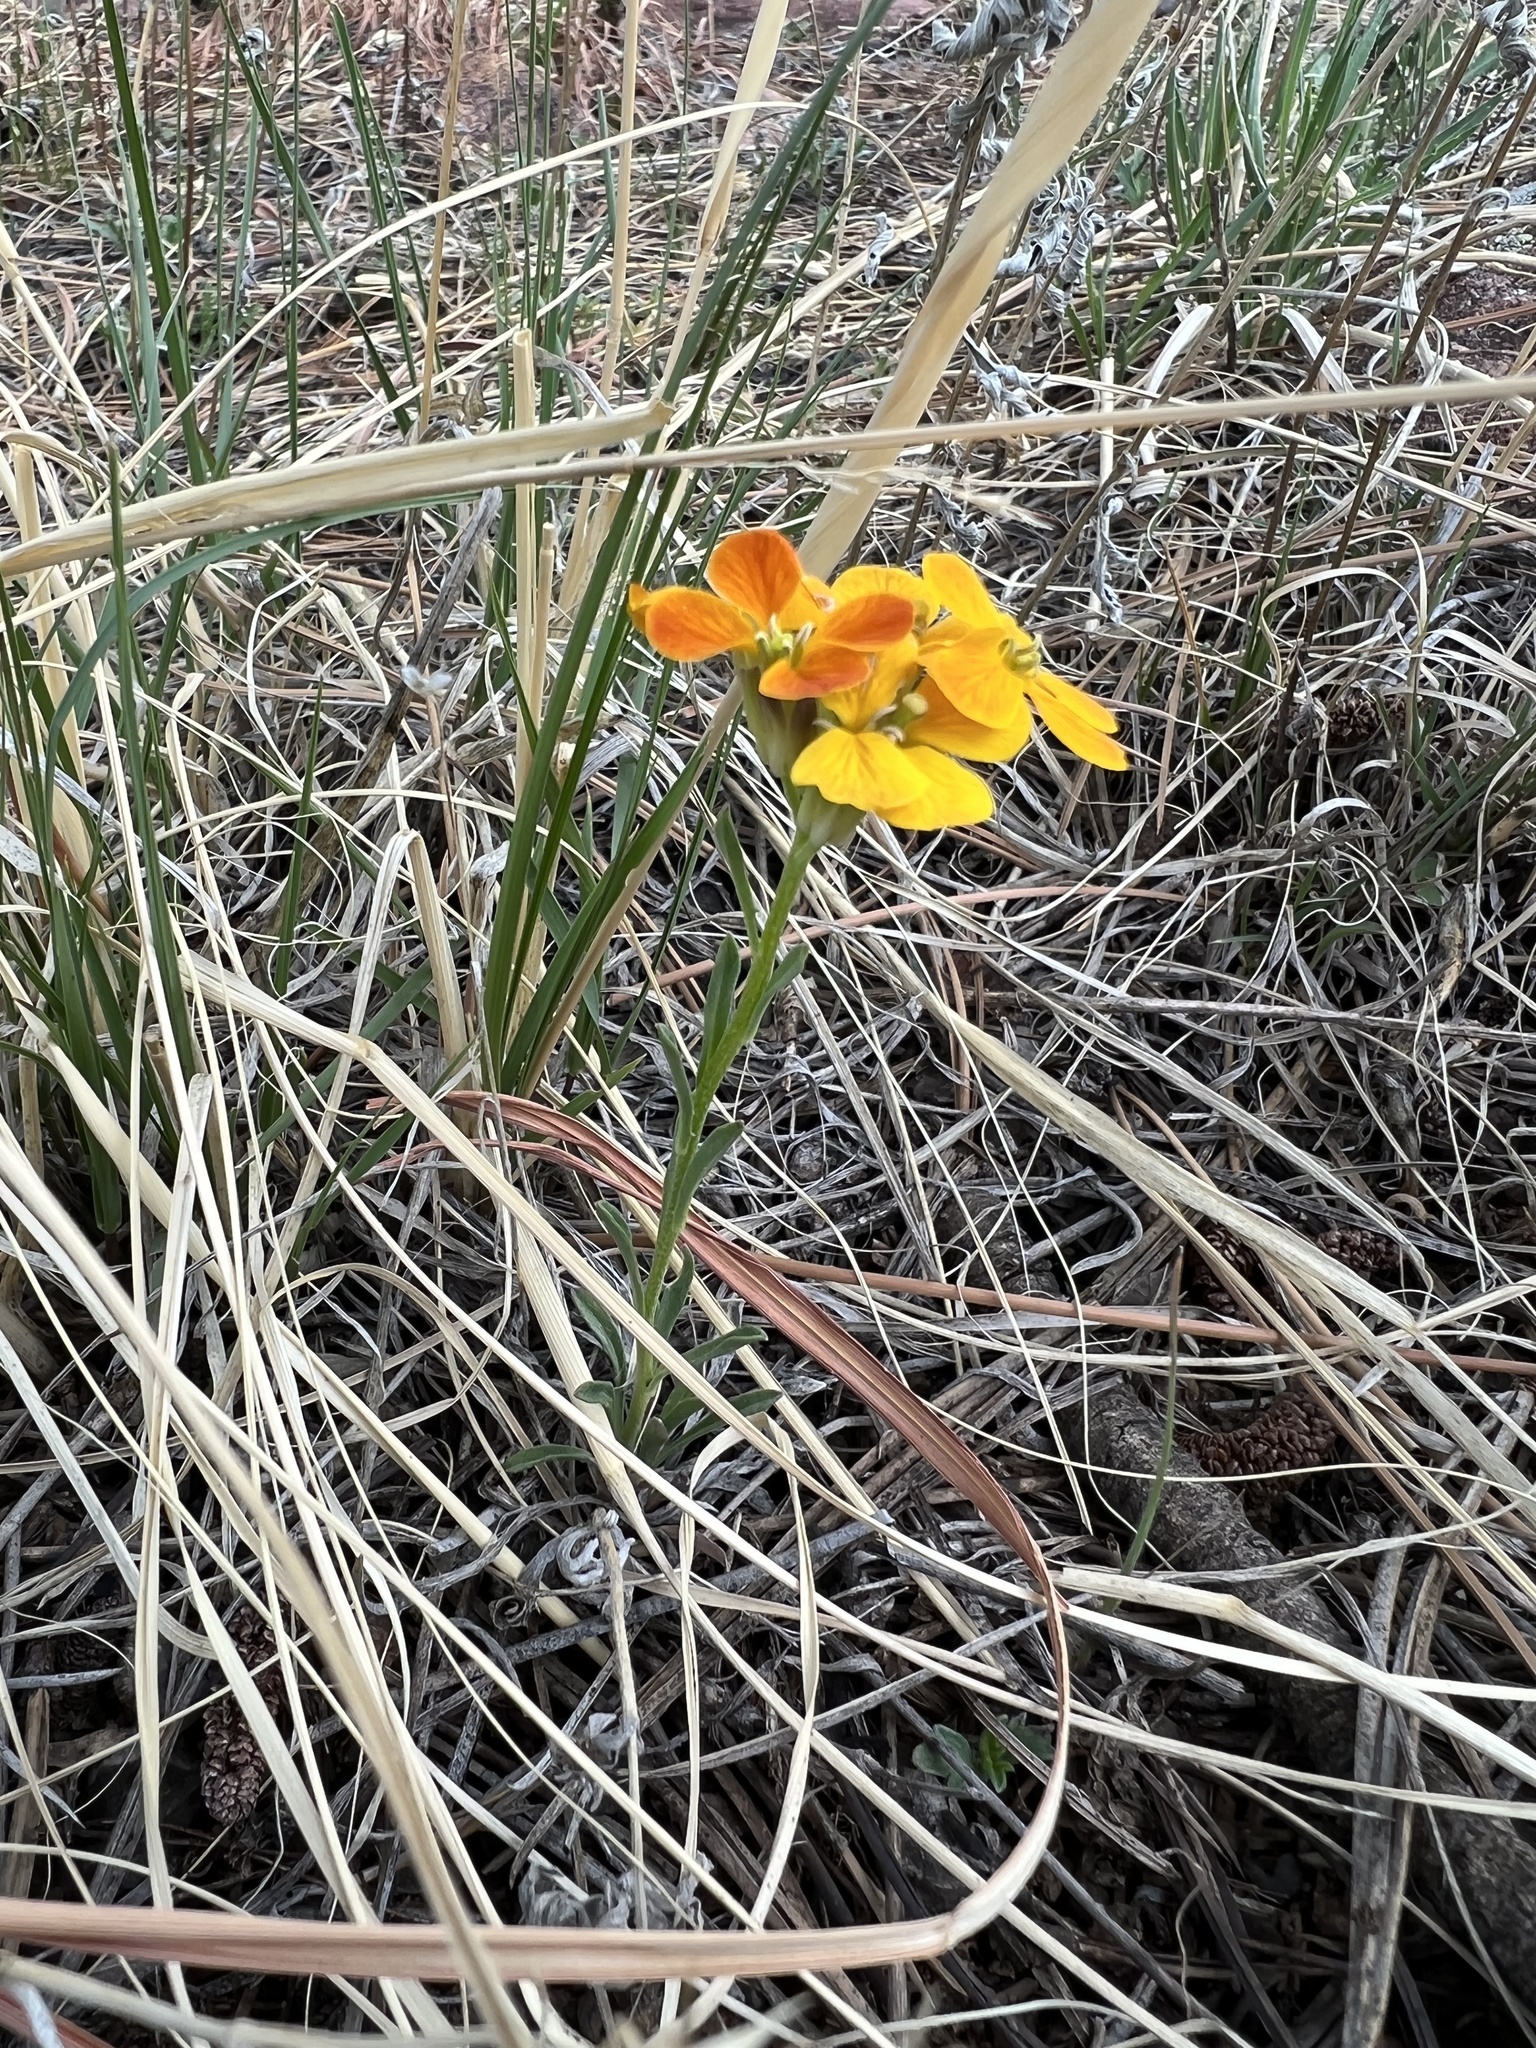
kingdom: Plantae
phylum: Tracheophyta
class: Magnoliopsida
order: Brassicales
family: Brassicaceae
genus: Erysimum
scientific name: Erysimum capitatum
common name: Western wallflower
